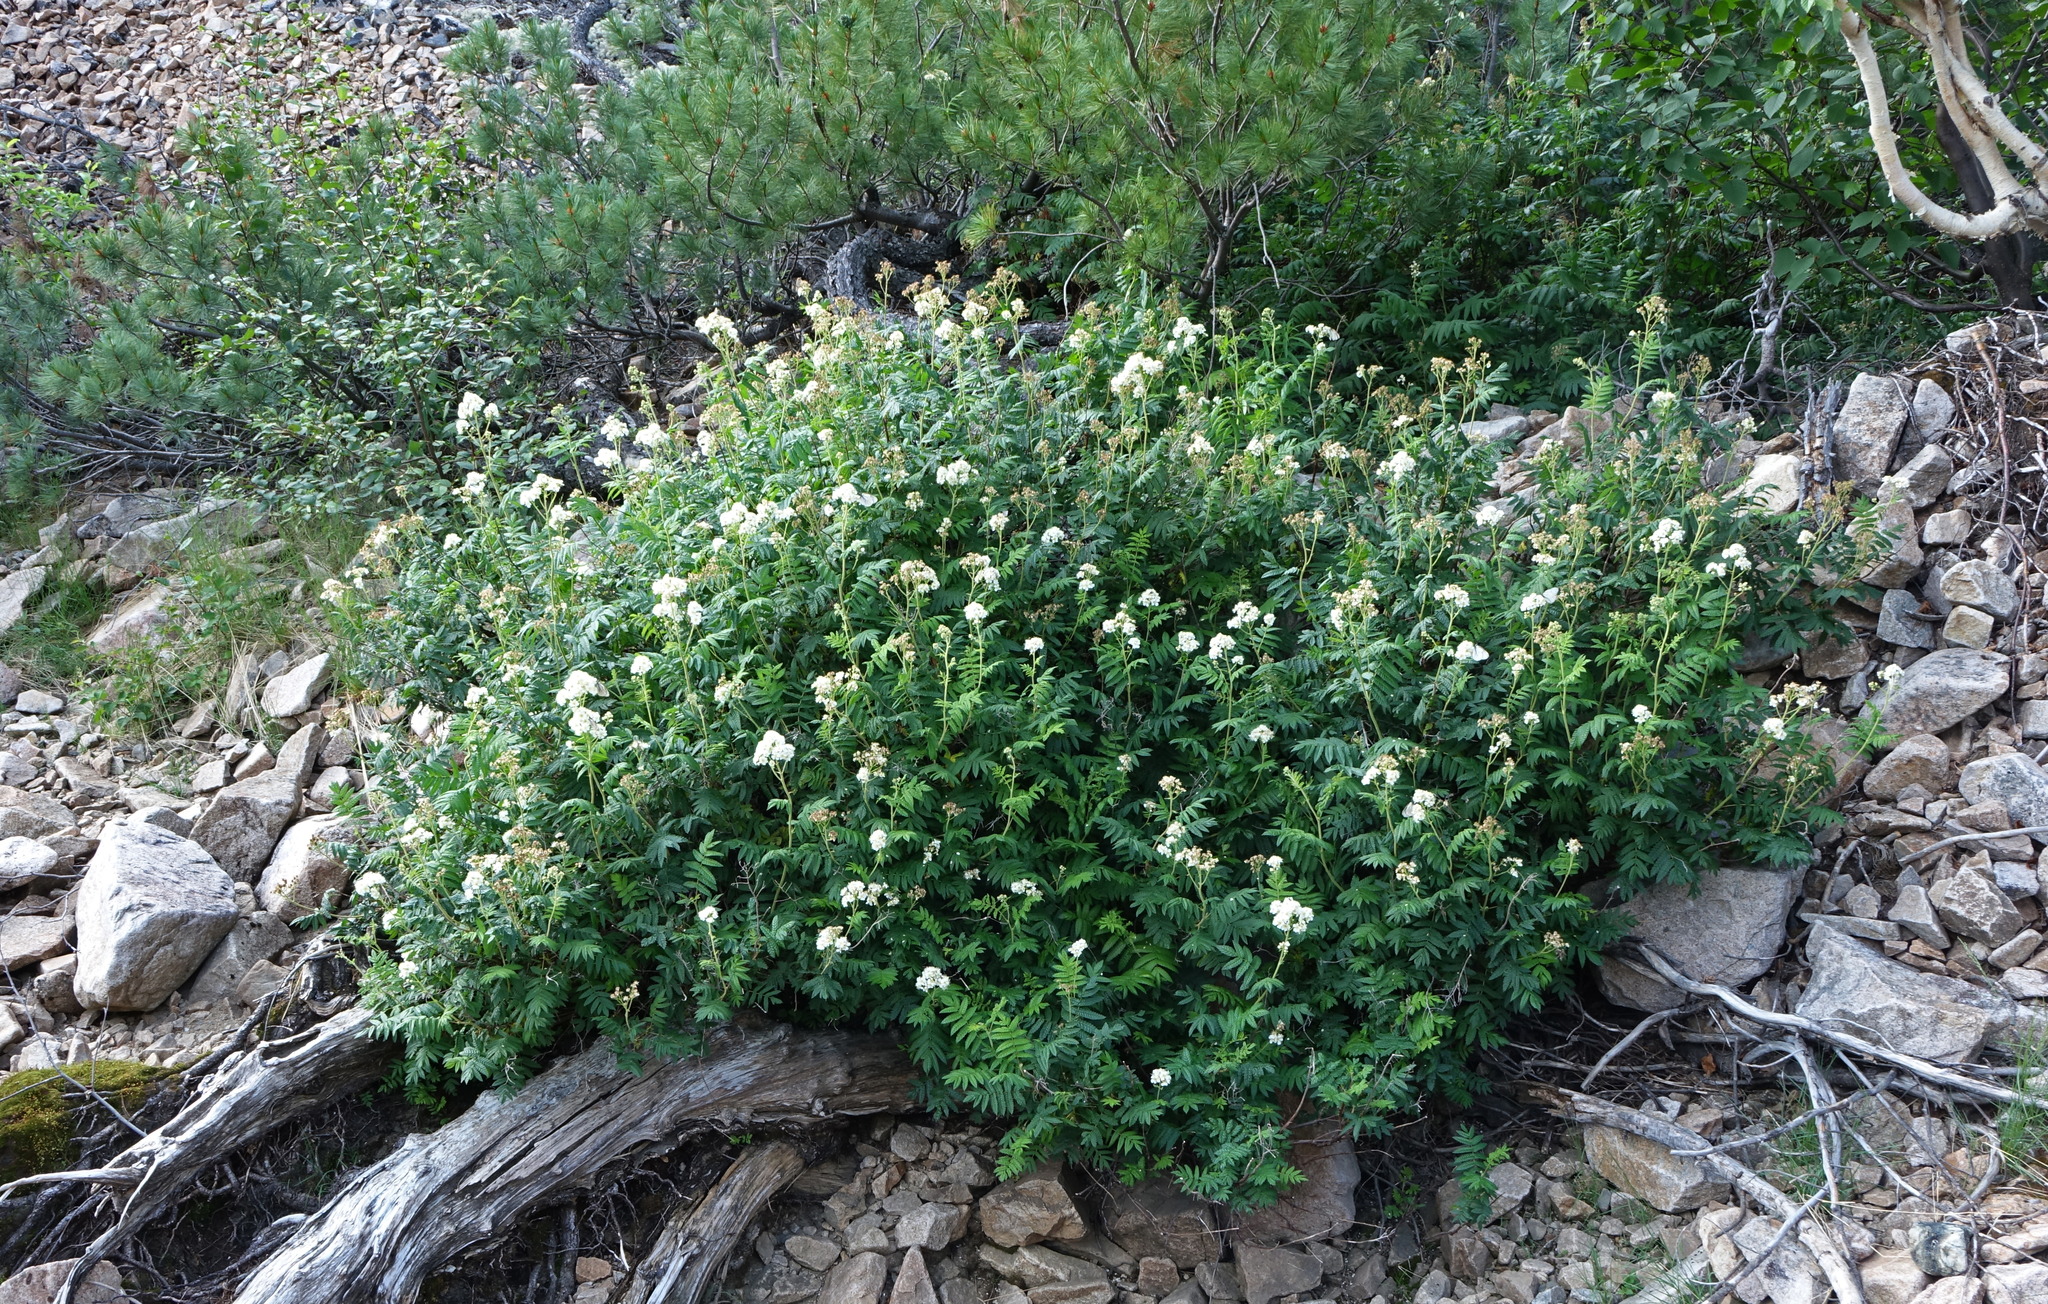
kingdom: Plantae
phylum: Tracheophyta
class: Magnoliopsida
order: Rosales
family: Rosaceae
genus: Sorbaria
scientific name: Sorbaria pallasii
